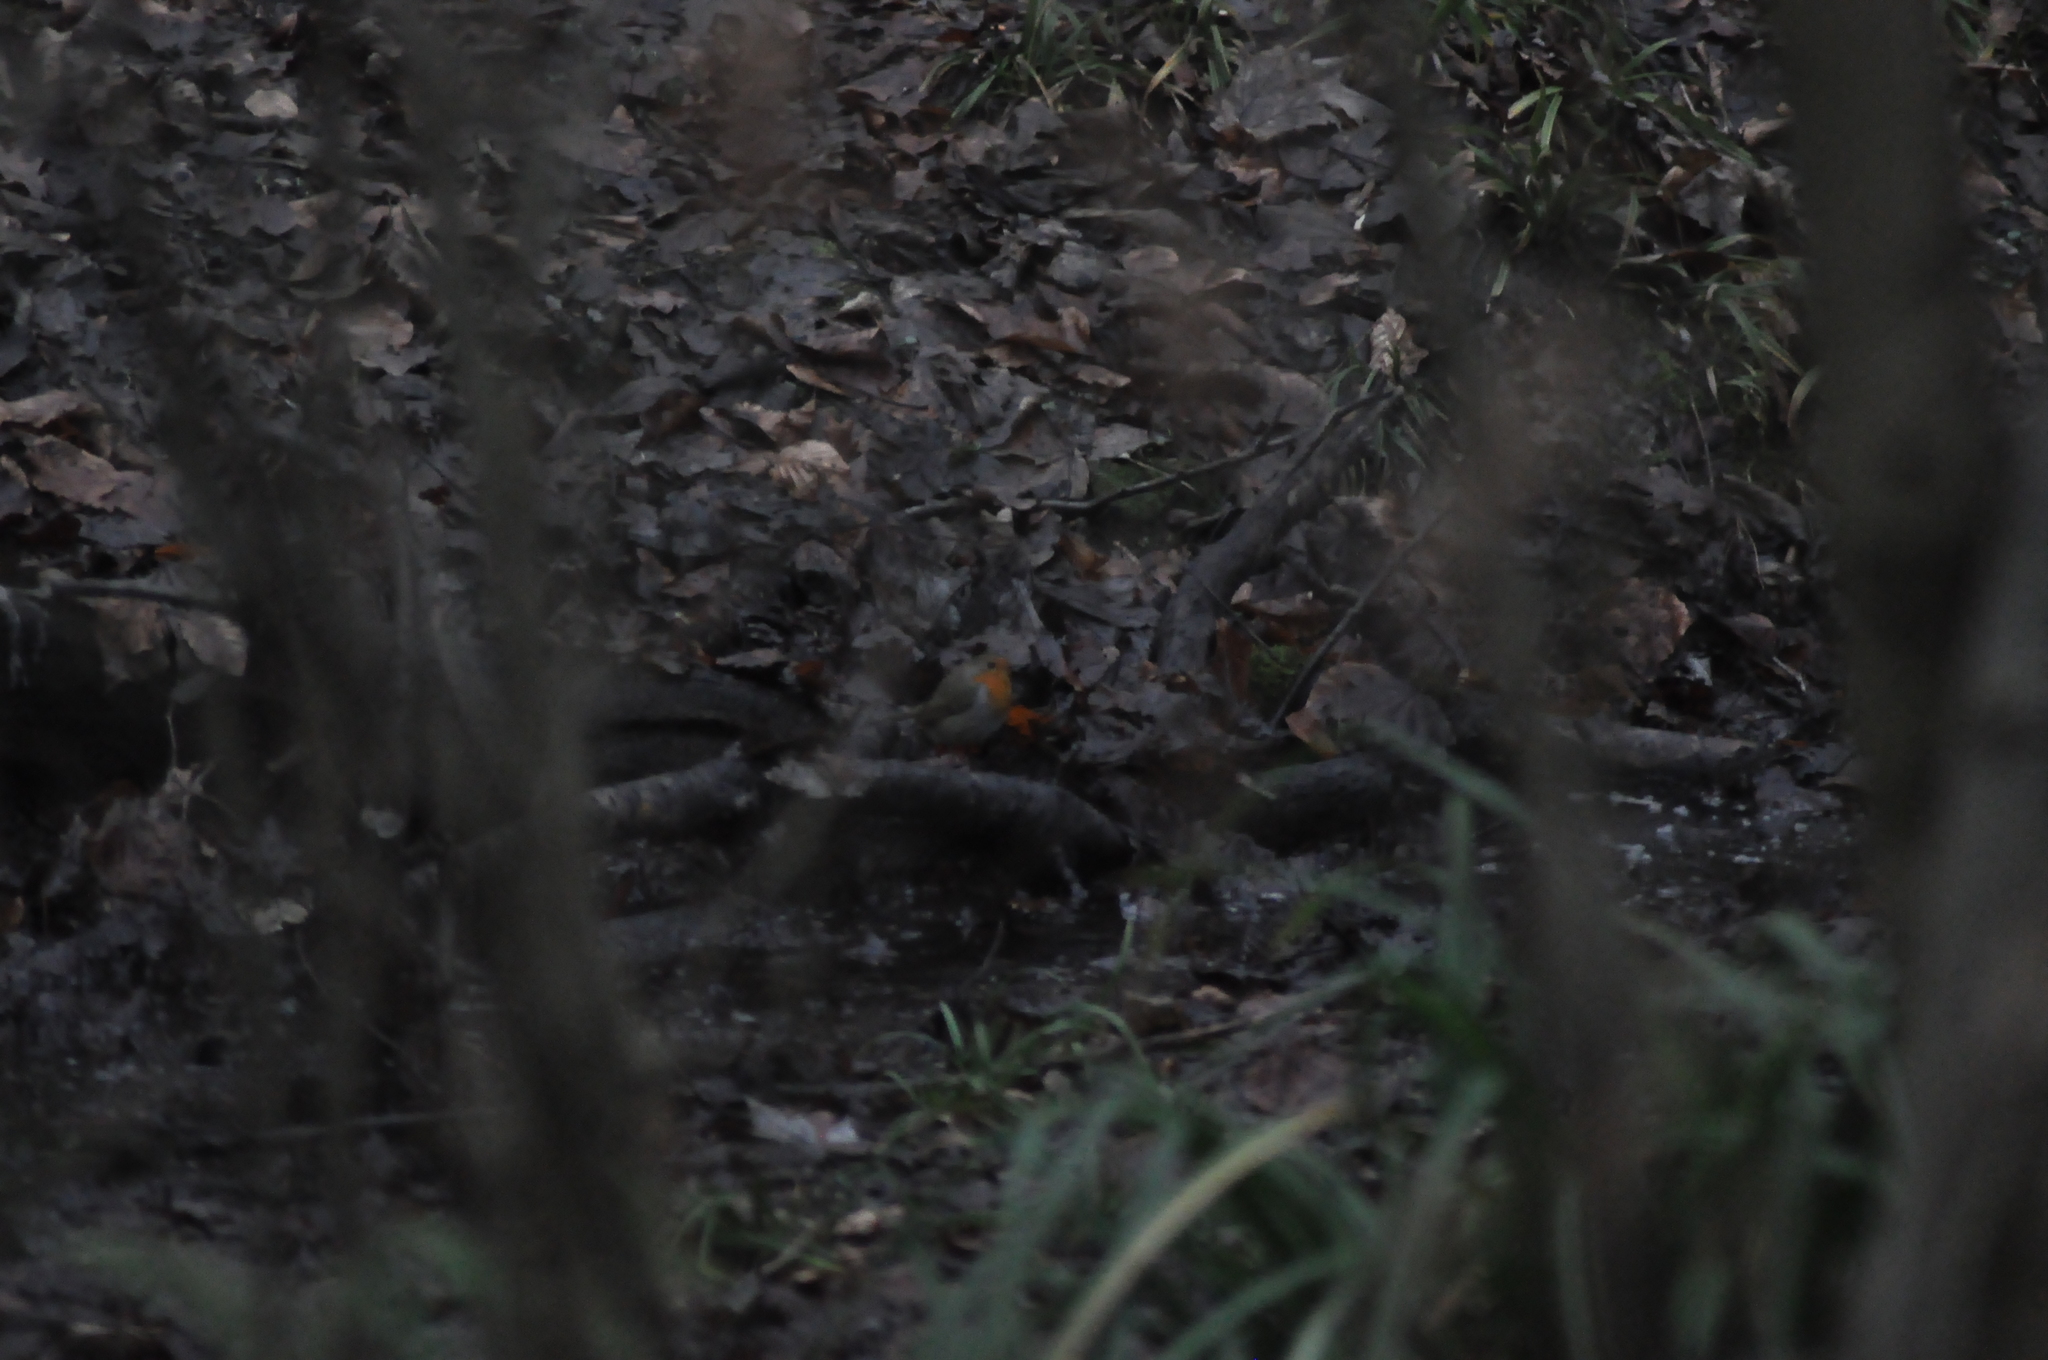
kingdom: Animalia
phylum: Chordata
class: Aves
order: Passeriformes
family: Muscicapidae
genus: Erithacus
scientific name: Erithacus rubecula
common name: European robin
